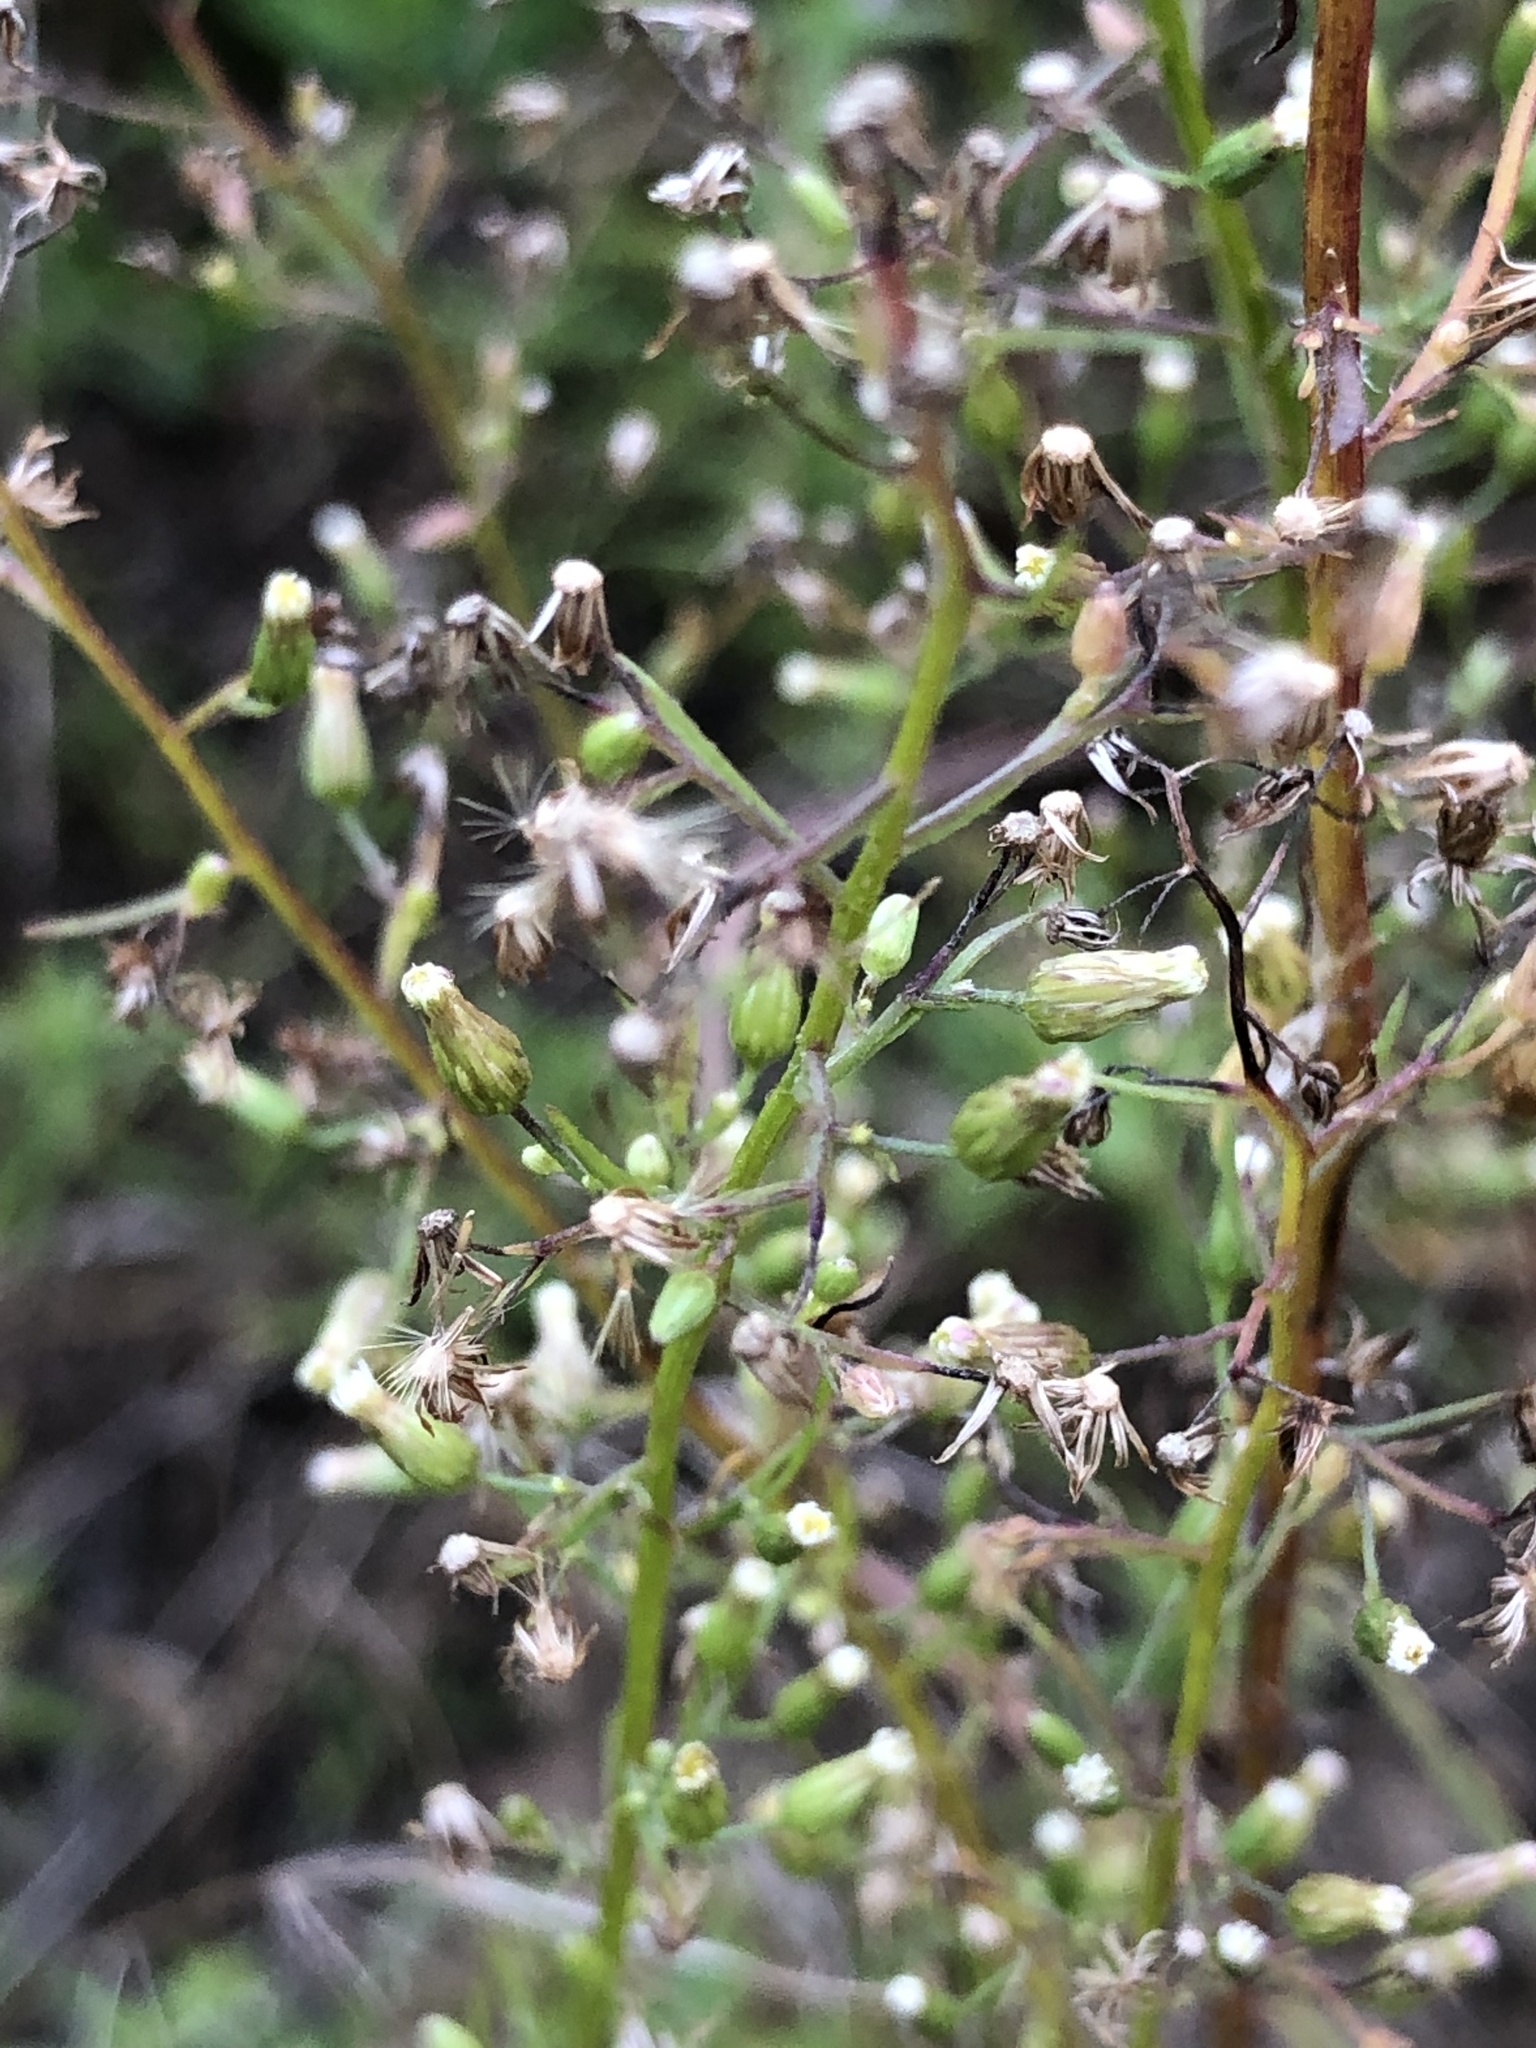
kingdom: Plantae
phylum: Tracheophyta
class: Magnoliopsida
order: Asterales
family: Asteraceae
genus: Erigeron
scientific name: Erigeron canadensis
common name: Canadian fleabane
